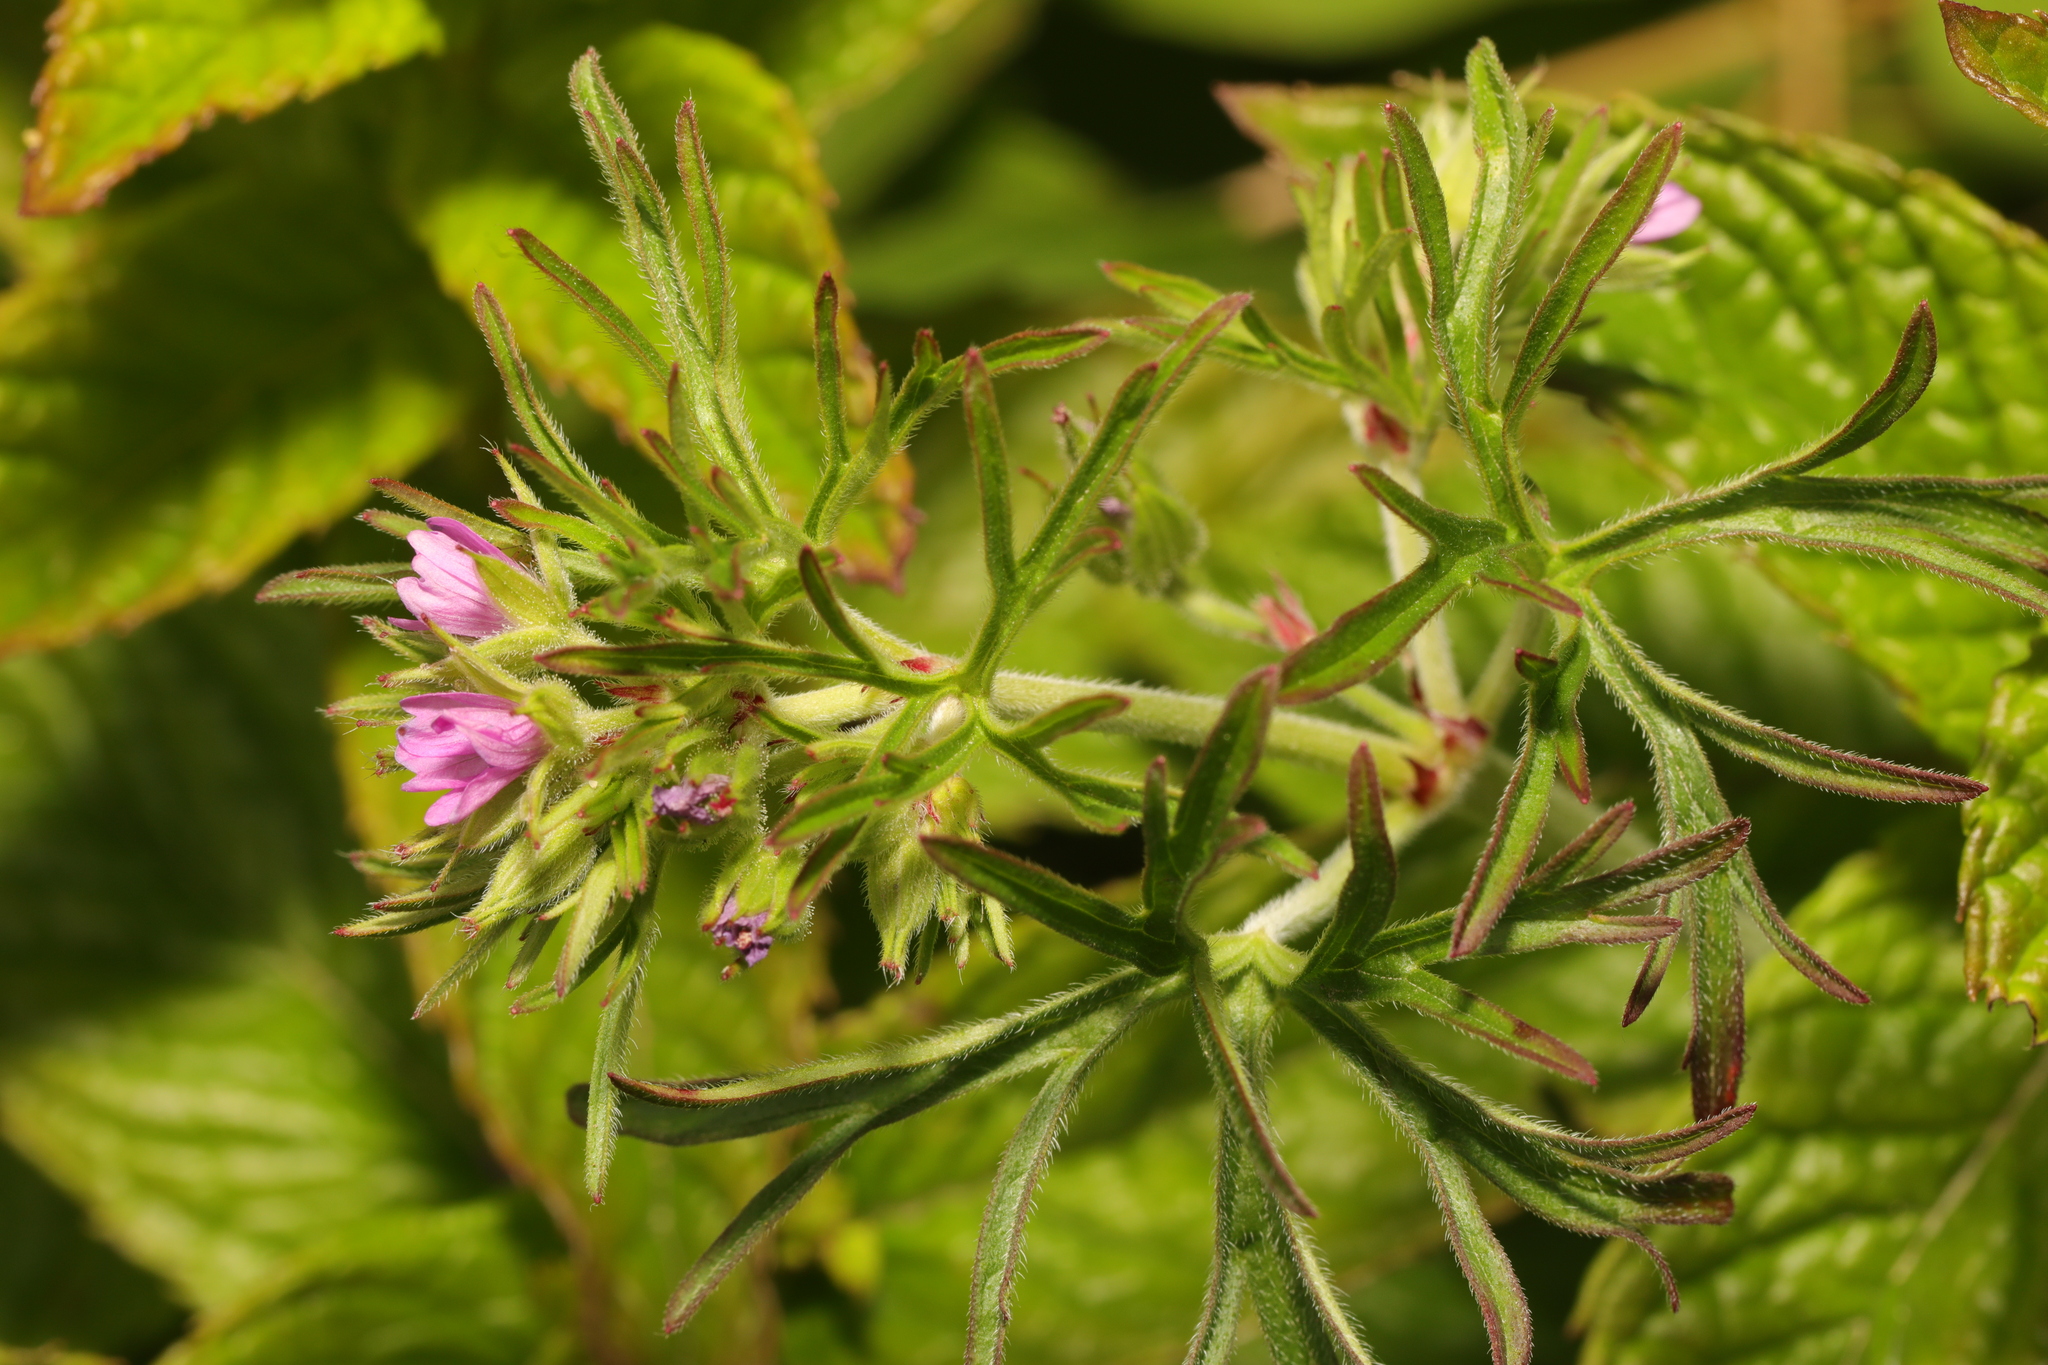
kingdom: Plantae
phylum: Tracheophyta
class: Magnoliopsida
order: Geraniales
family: Geraniaceae
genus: Geranium
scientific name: Geranium dissectum
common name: Cut-leaved crane's-bill
